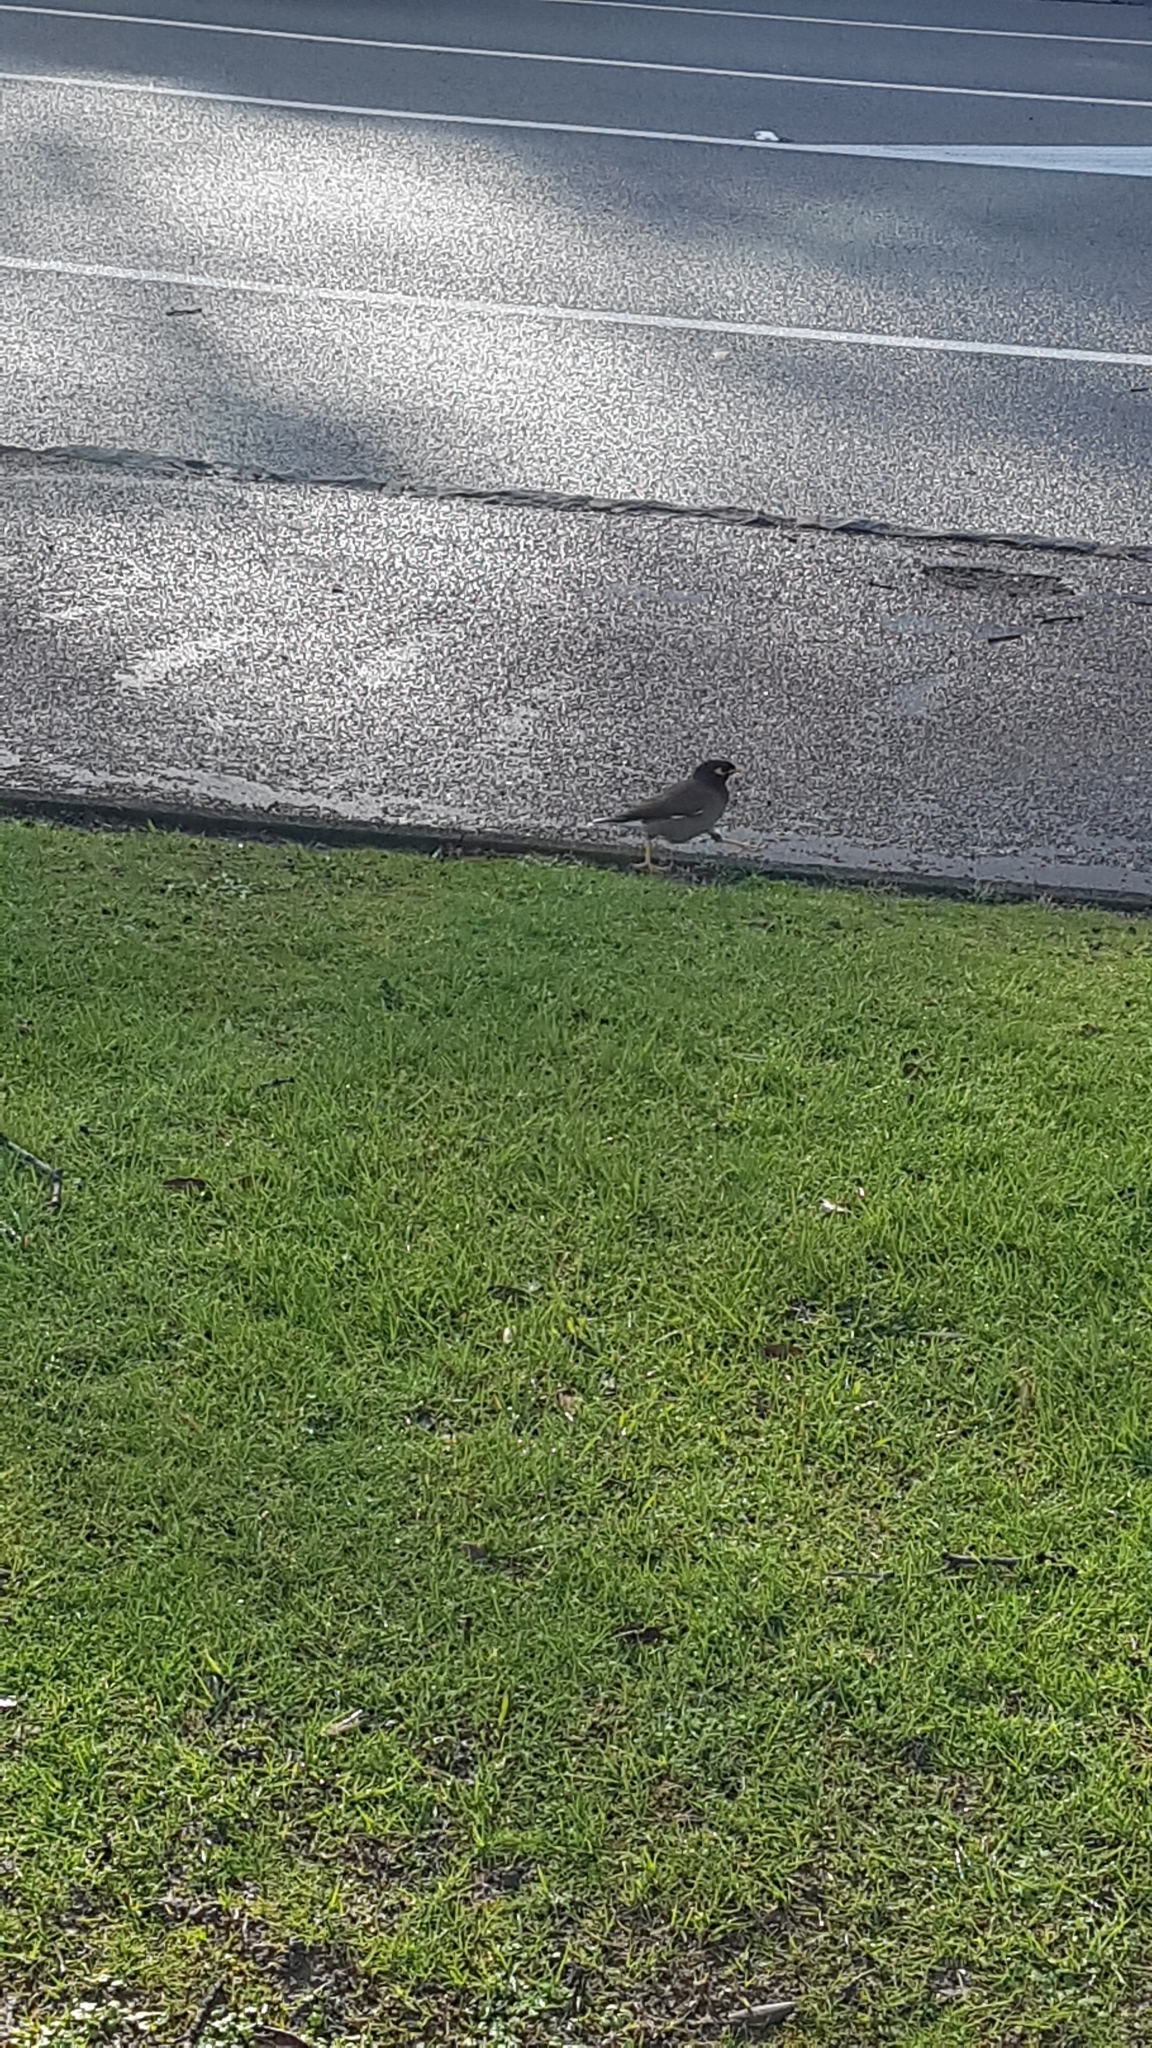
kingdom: Animalia
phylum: Chordata
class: Aves
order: Passeriformes
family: Sturnidae
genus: Acridotheres
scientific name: Acridotheres tristis
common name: Common myna
